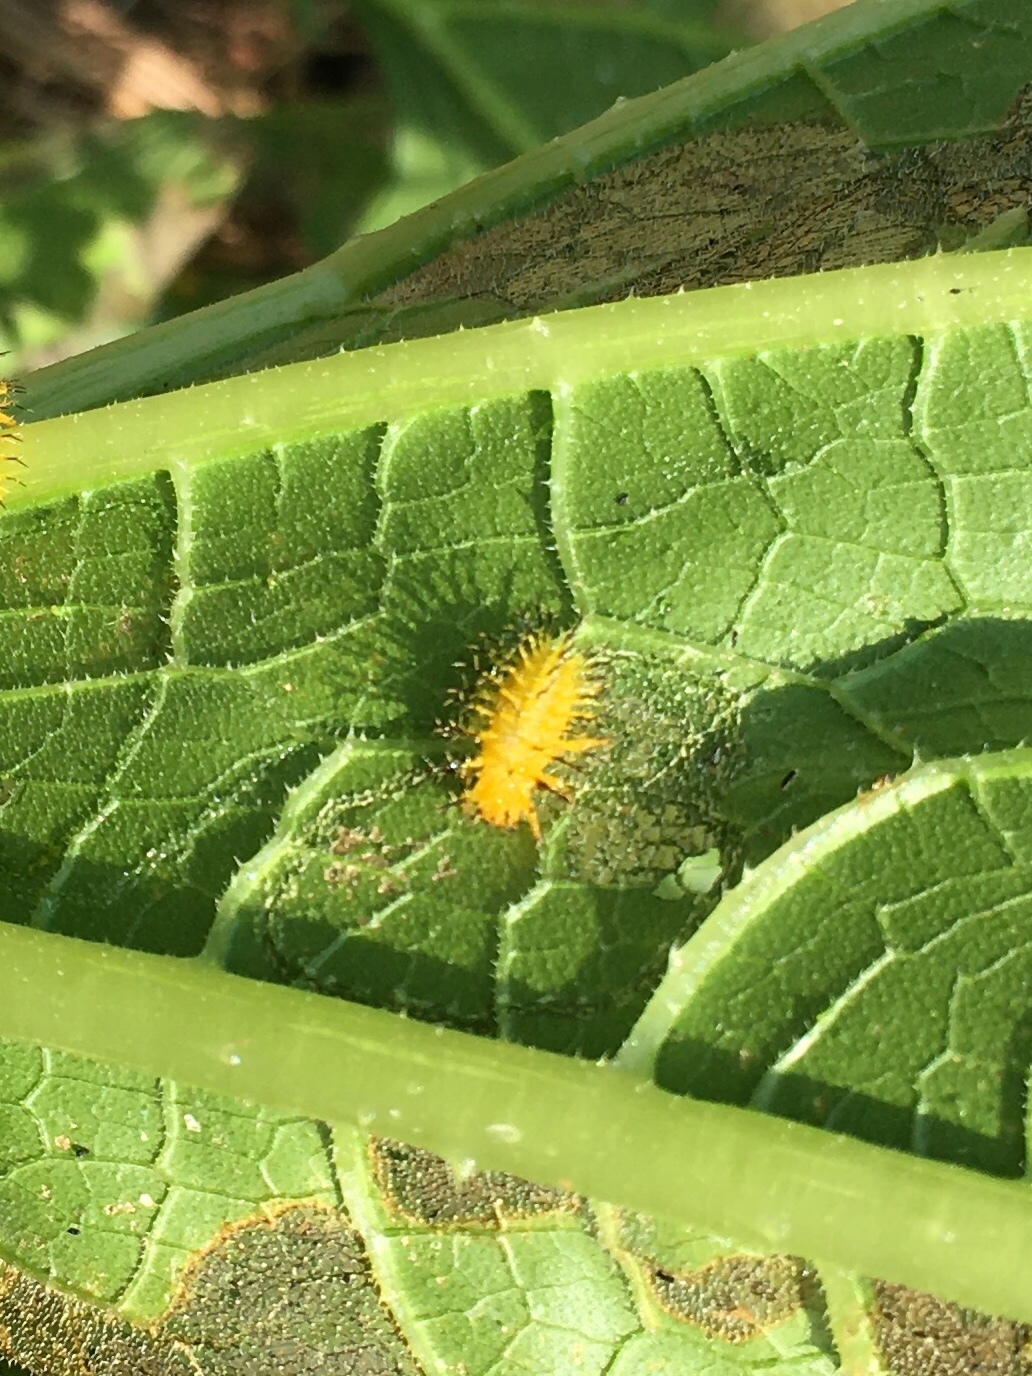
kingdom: Animalia
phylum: Arthropoda
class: Insecta
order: Coleoptera
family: Coccinellidae
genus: Epilachna
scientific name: Epilachna borealis
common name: Squash beetle
